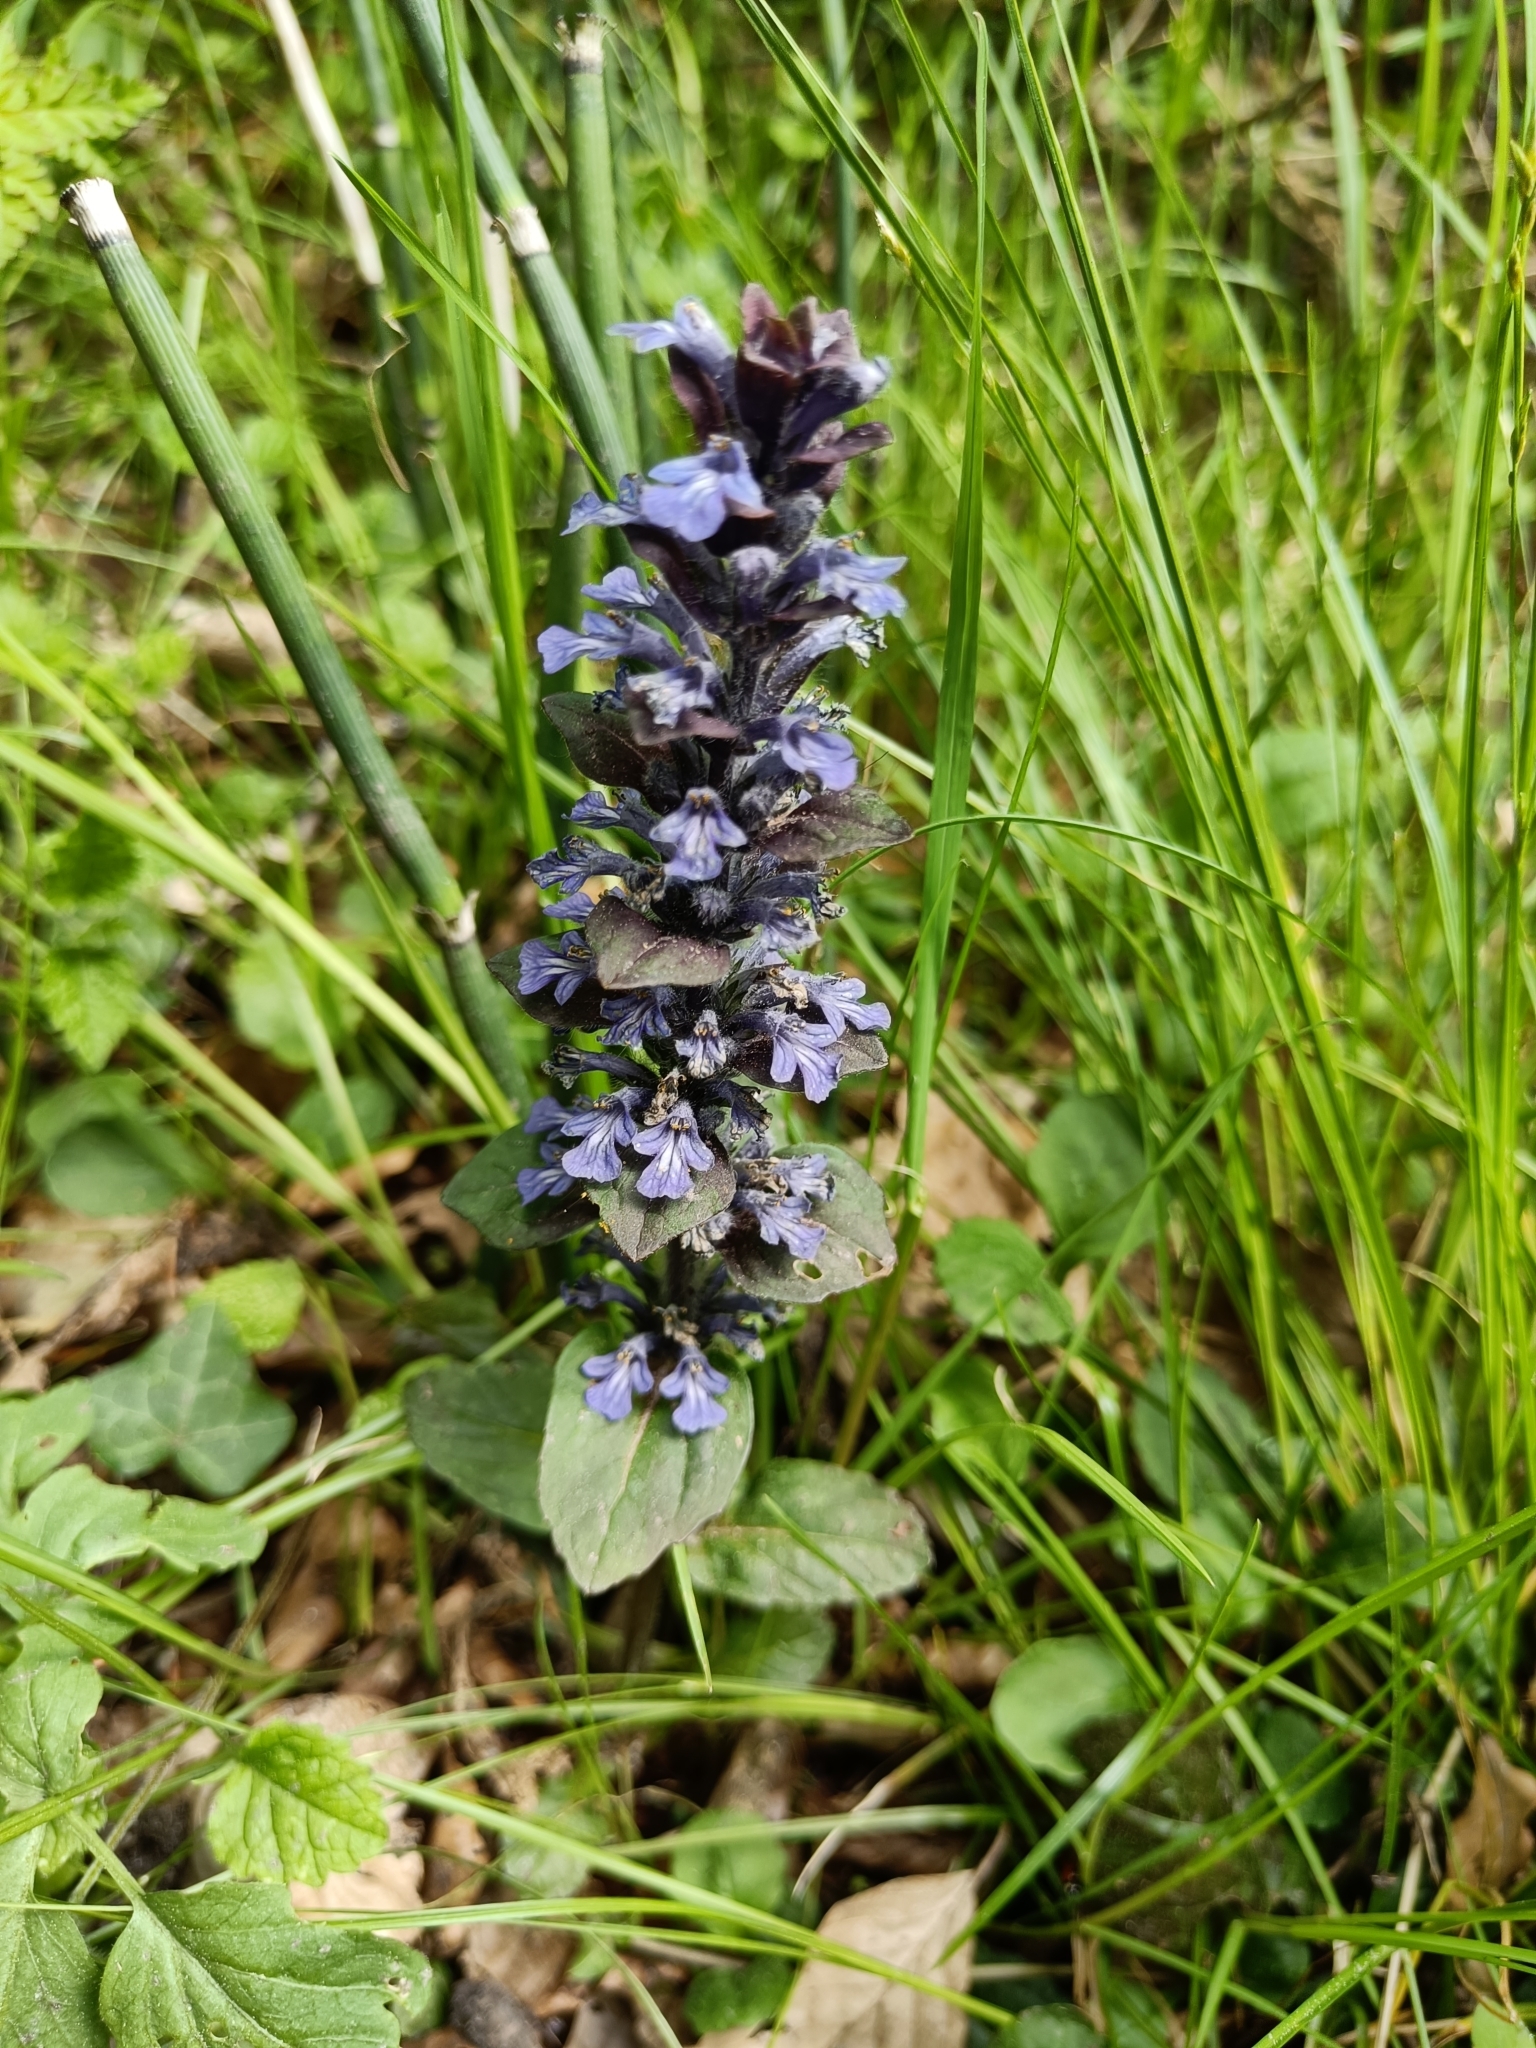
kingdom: Plantae
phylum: Tracheophyta
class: Magnoliopsida
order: Lamiales
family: Lamiaceae
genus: Ajuga
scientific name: Ajuga reptans
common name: Bugle
